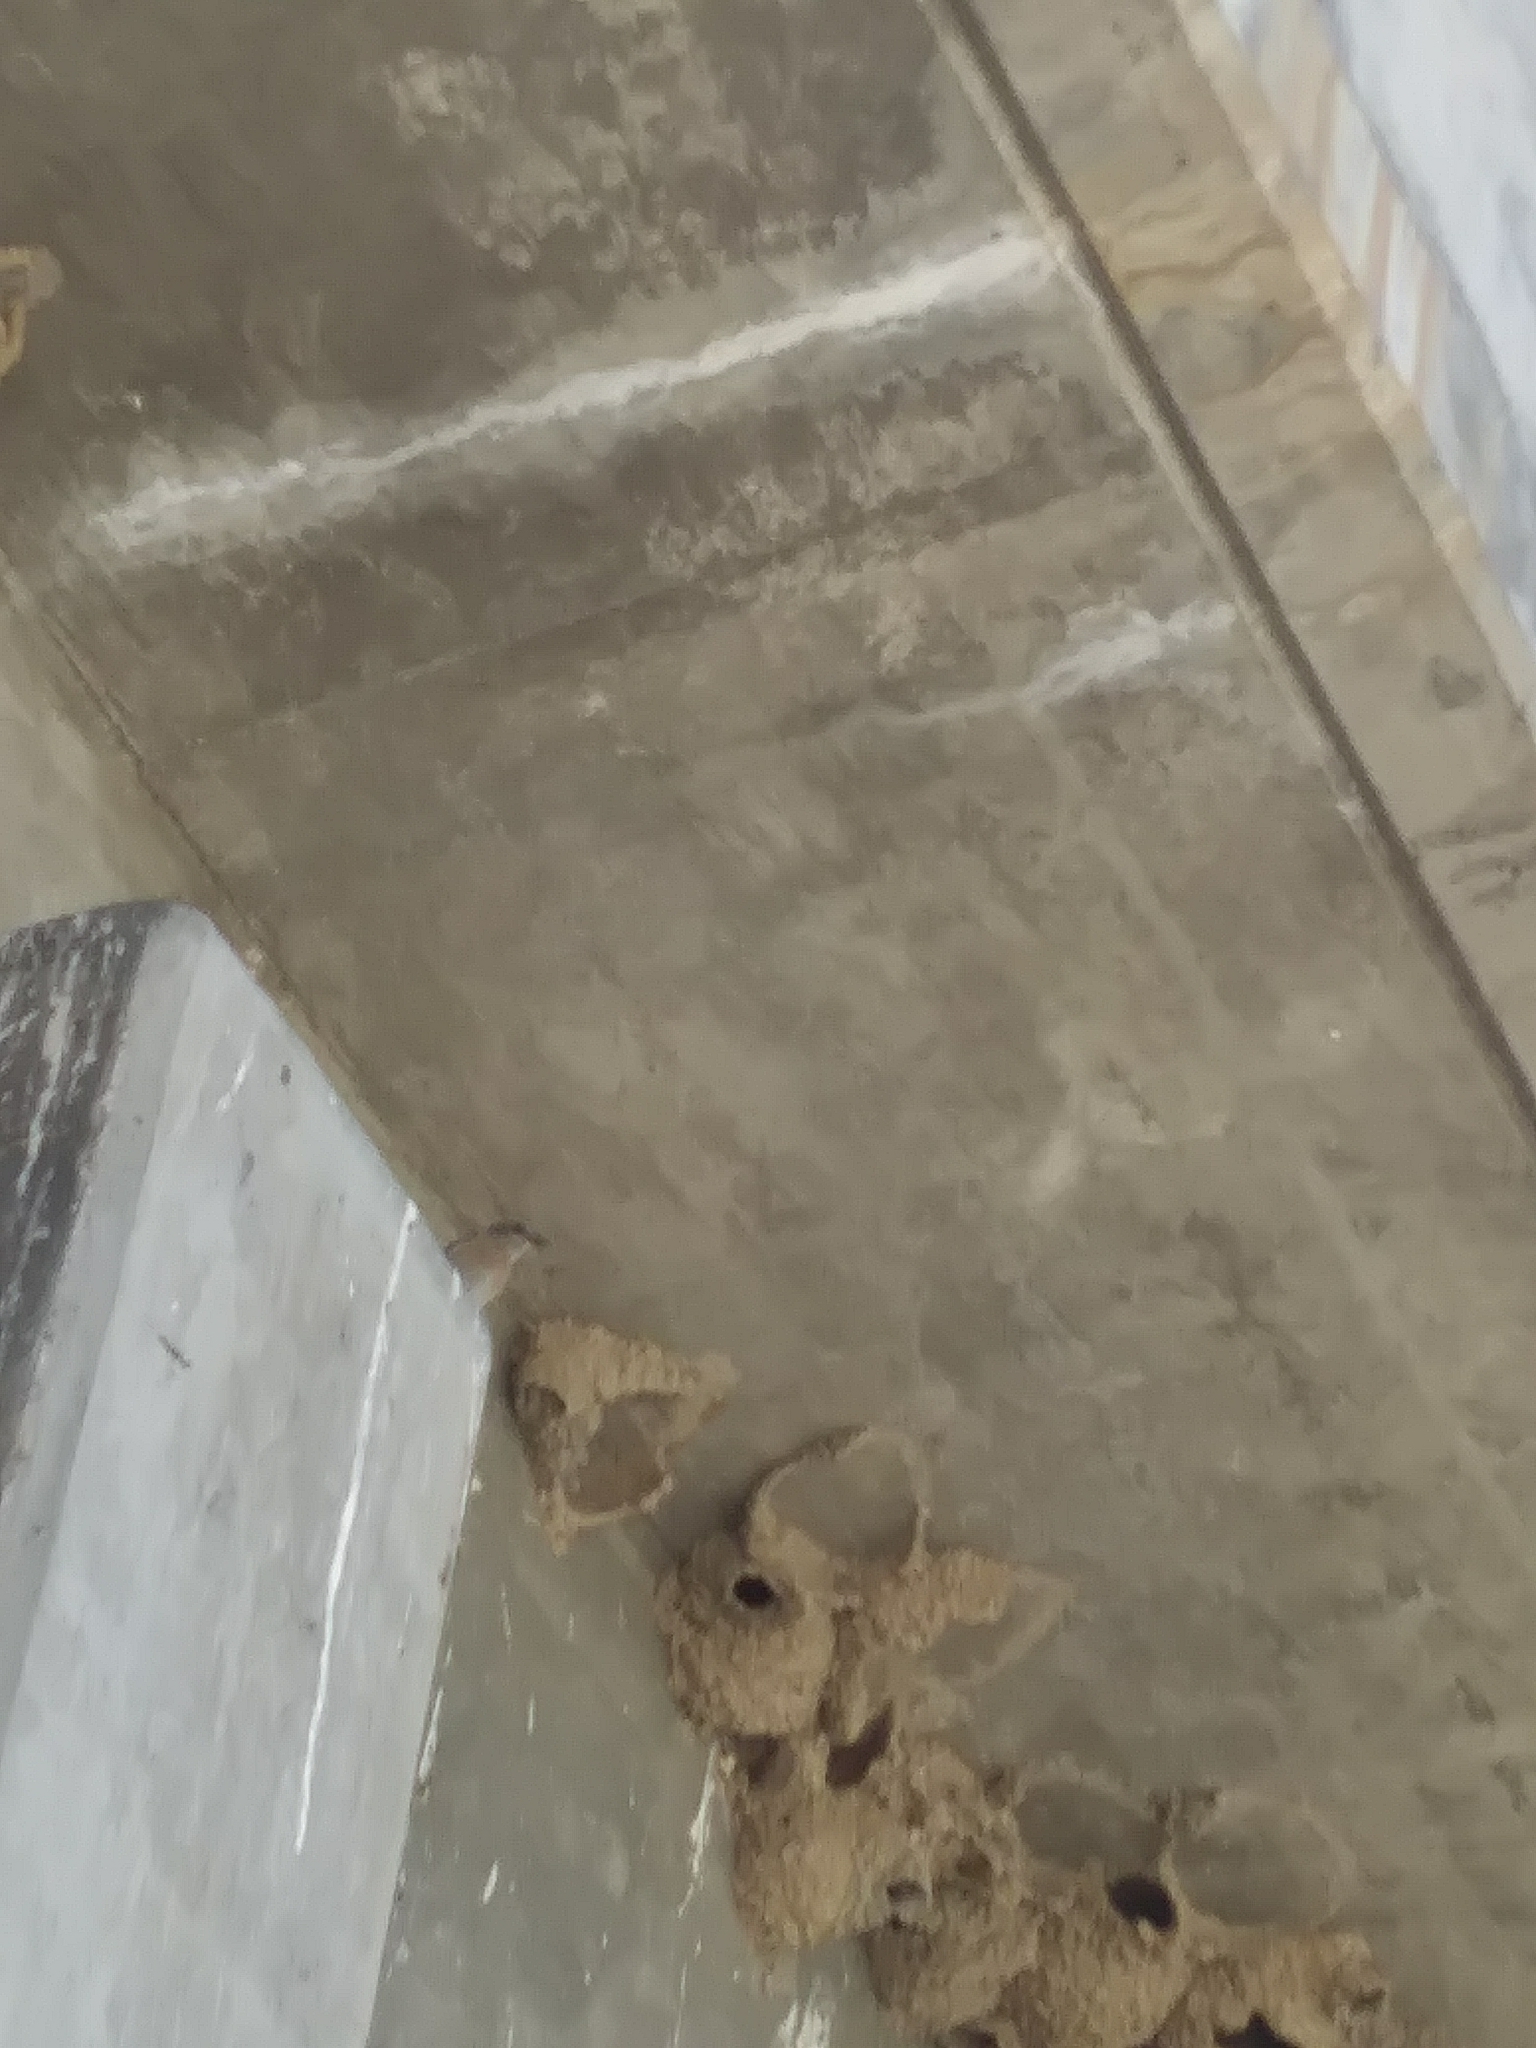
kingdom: Animalia
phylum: Chordata
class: Aves
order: Passeriformes
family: Hirundinidae
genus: Petrochelidon
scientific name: Petrochelidon pyrrhonota
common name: American cliff swallow
